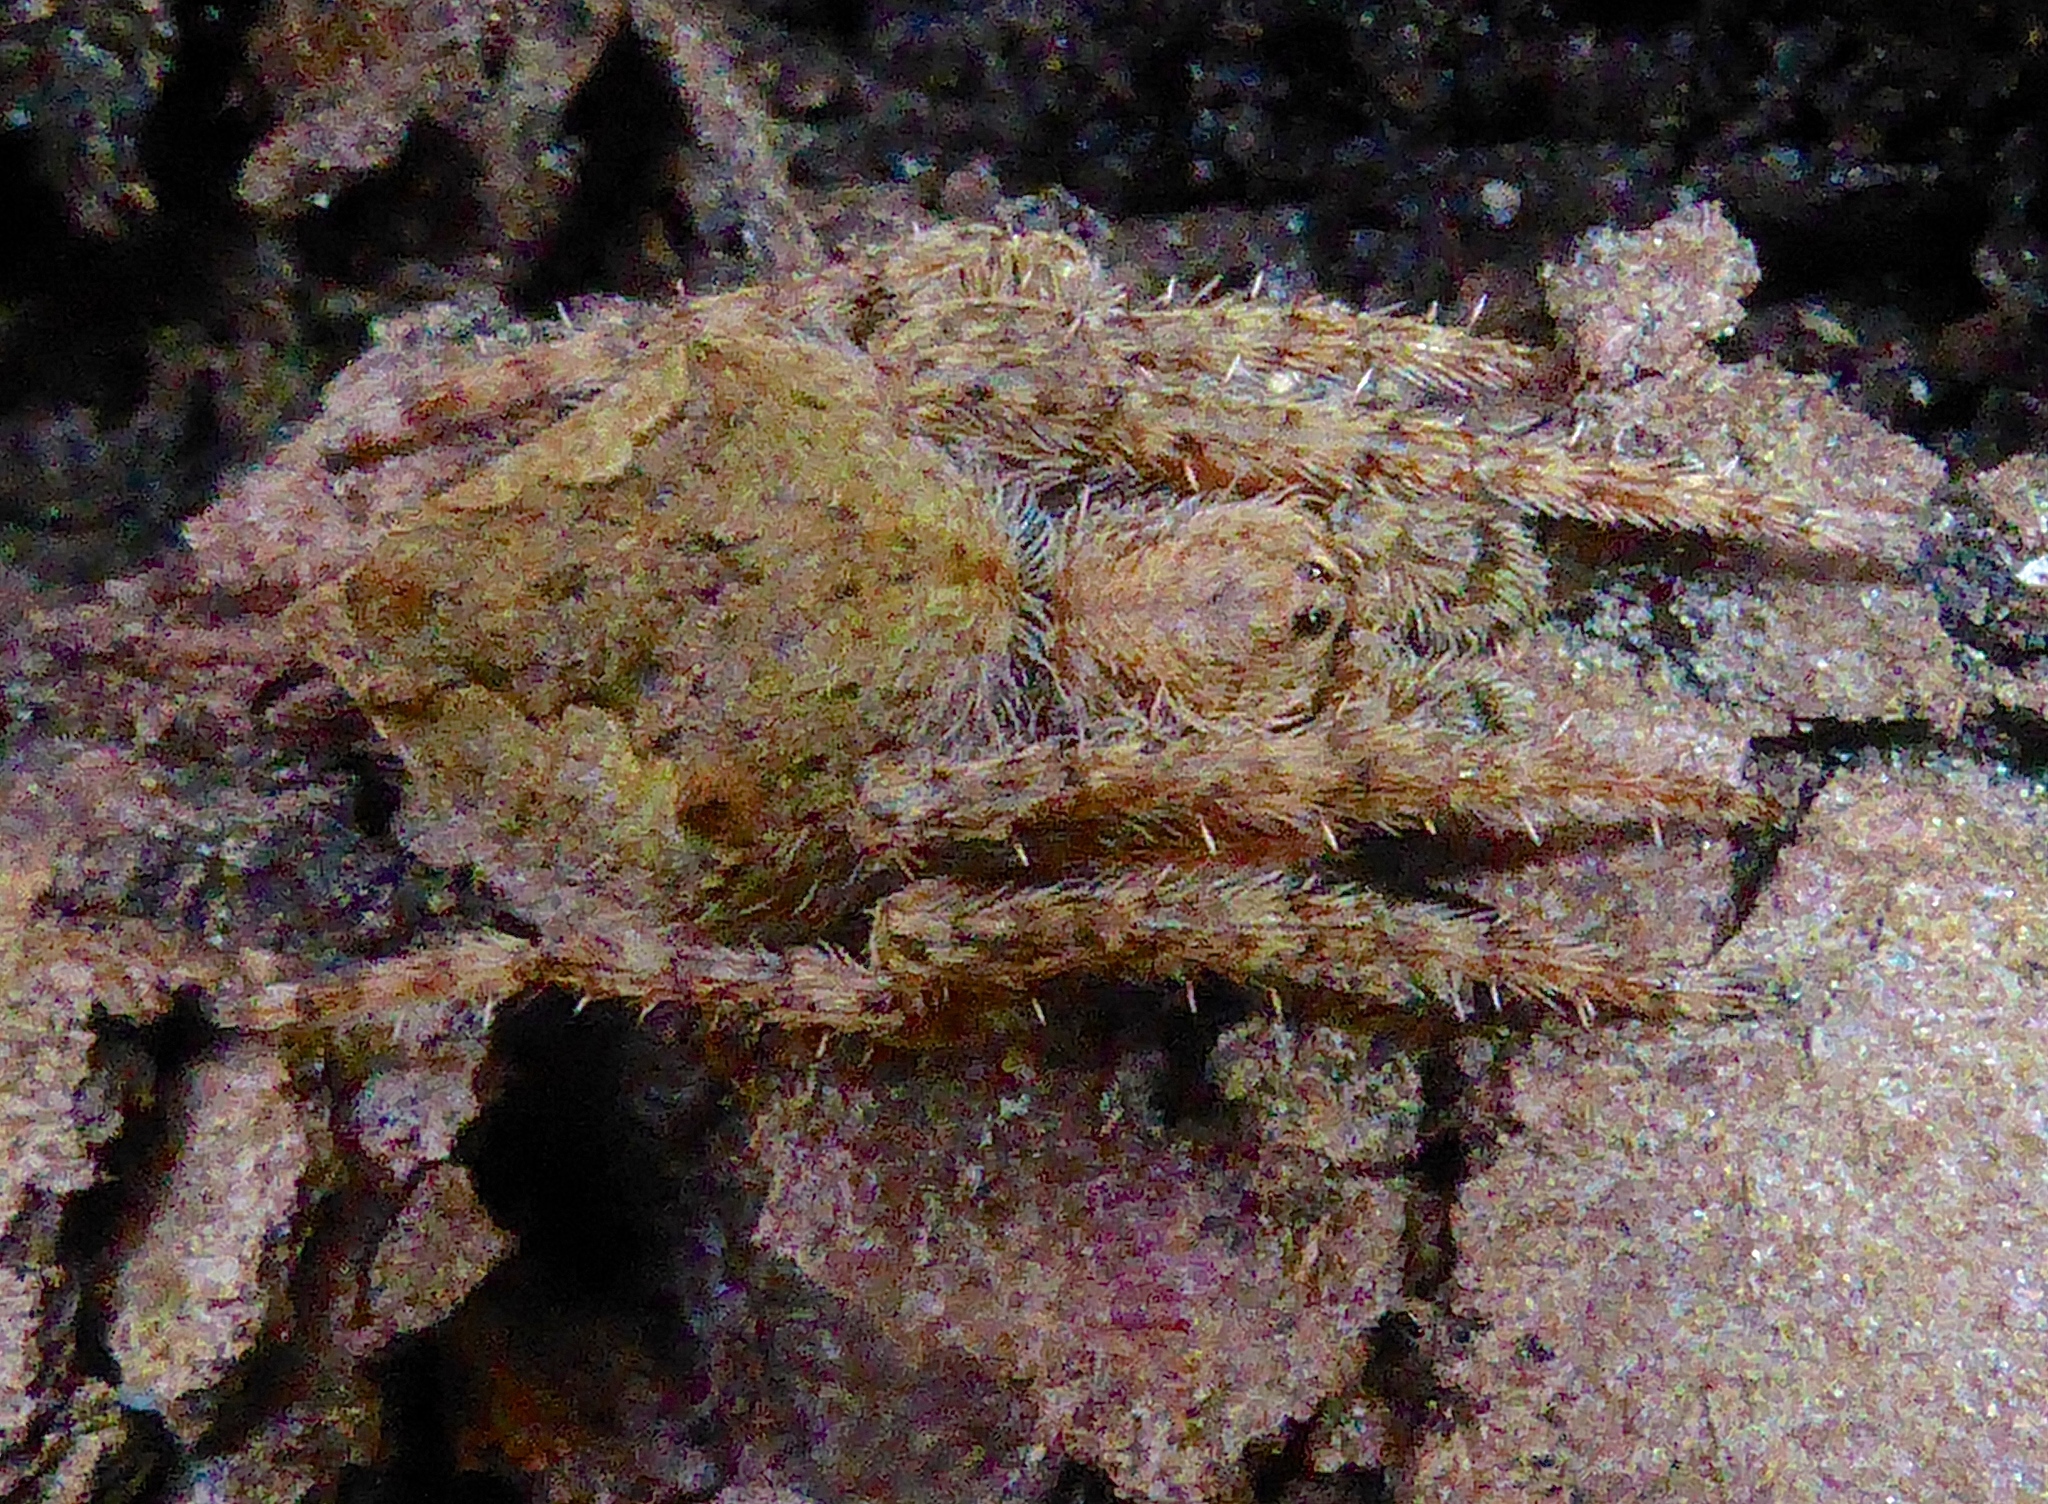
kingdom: Animalia
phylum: Arthropoda
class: Arachnida
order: Araneae
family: Araneidae
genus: Eriophora
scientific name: Eriophora pustulosa
